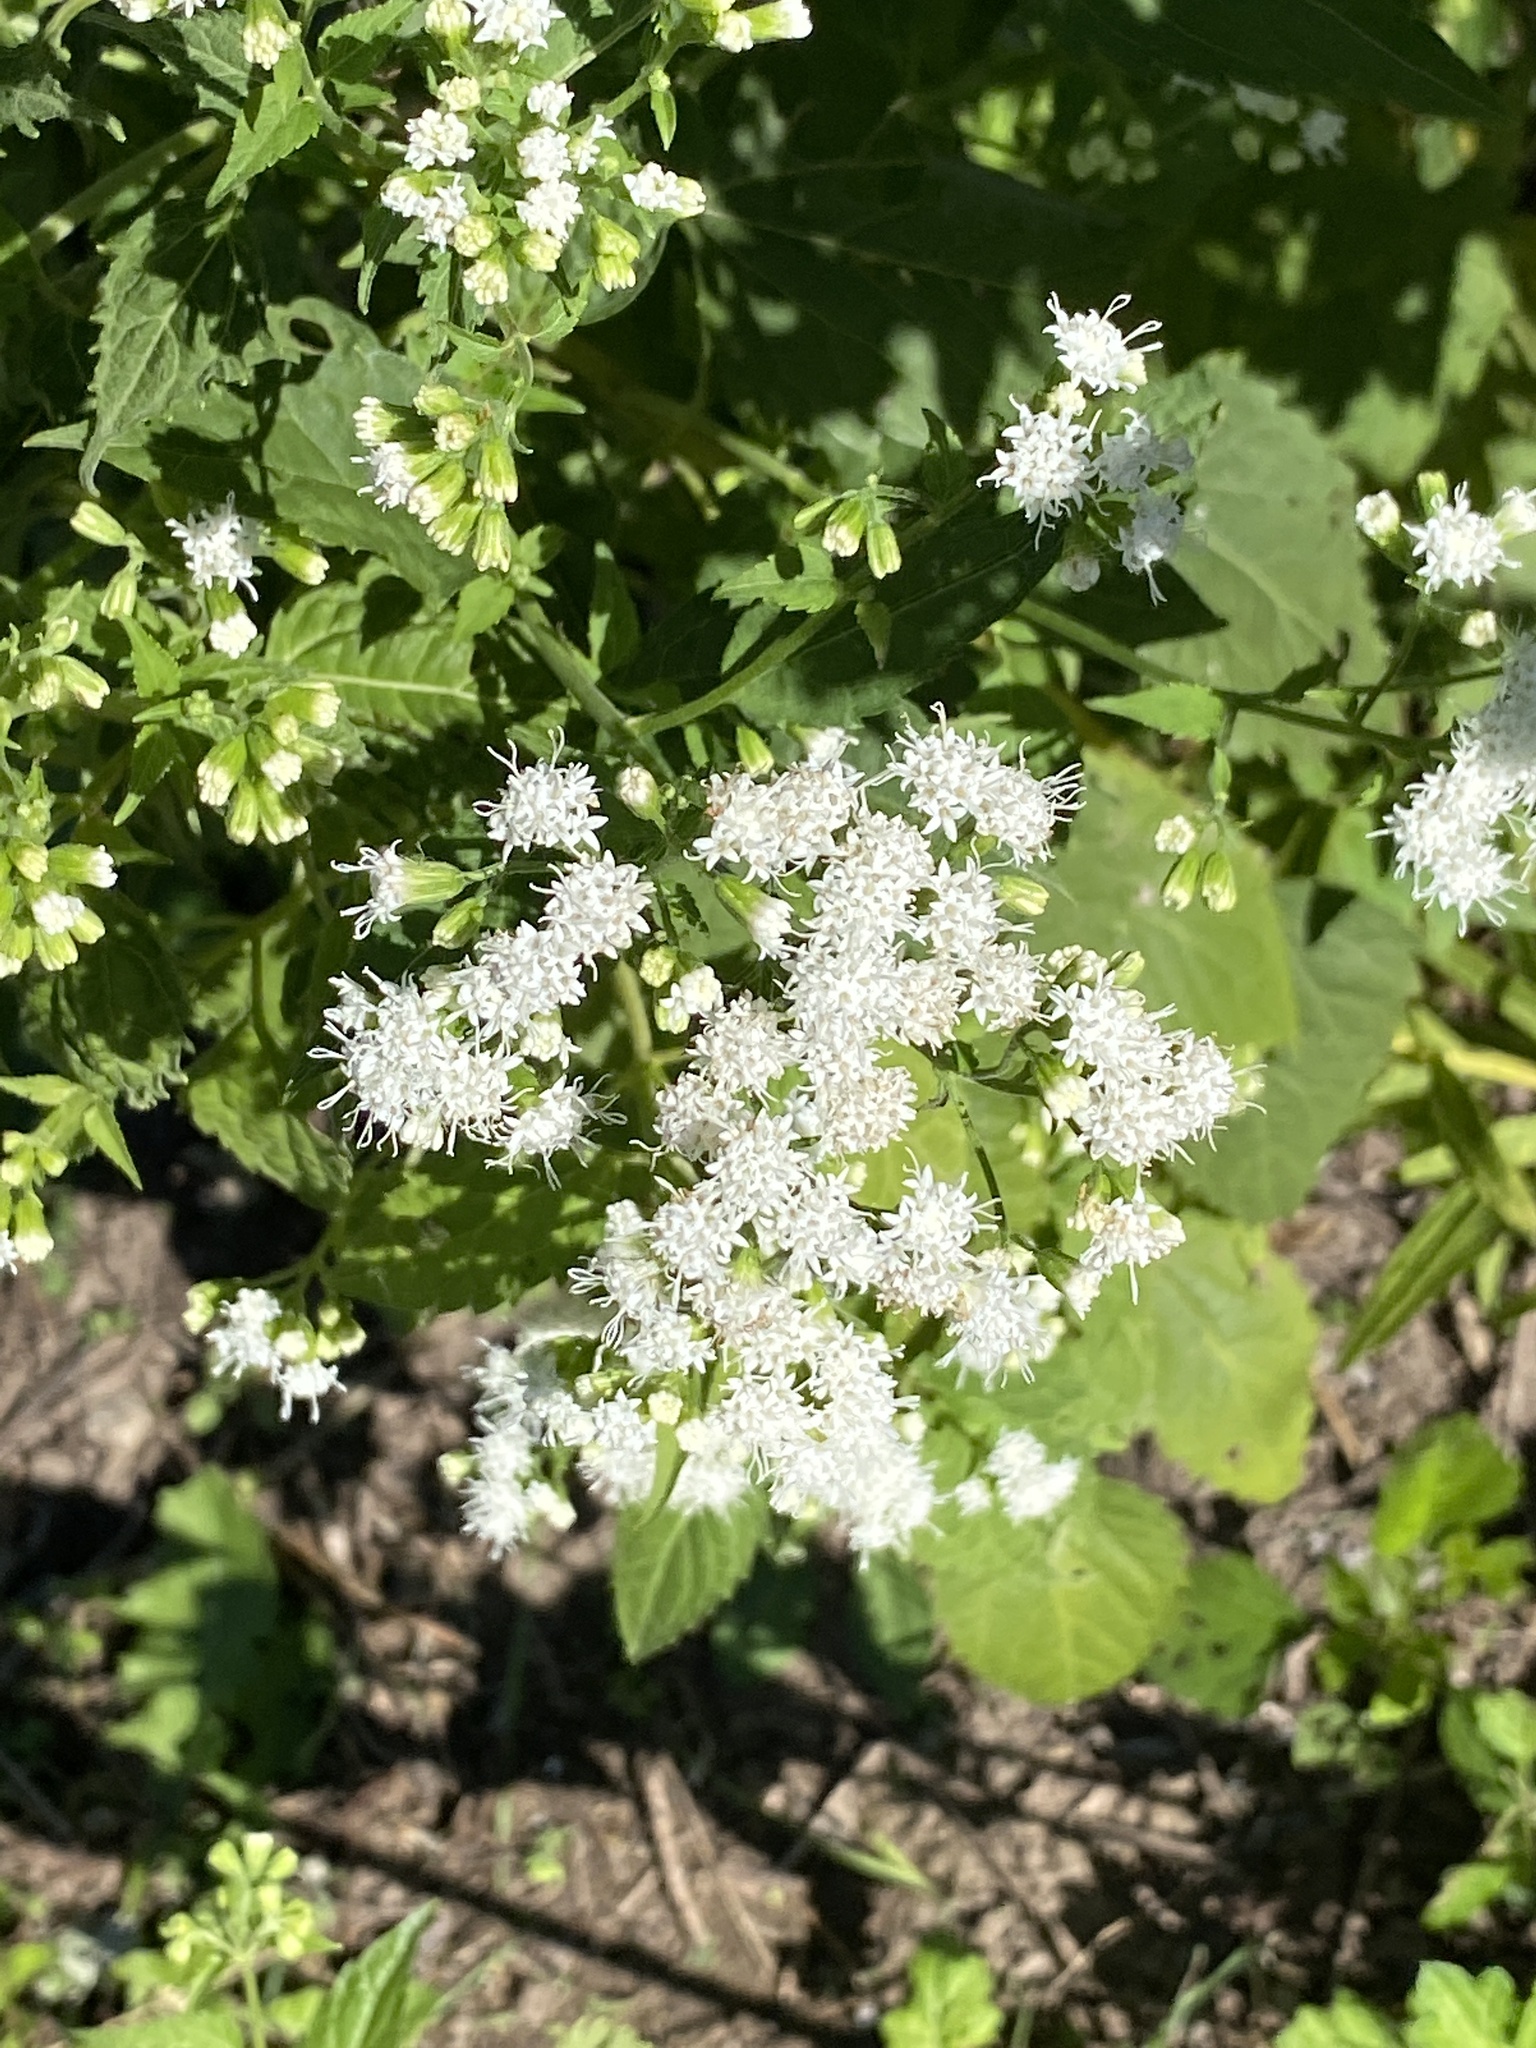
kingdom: Plantae
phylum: Tracheophyta
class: Magnoliopsida
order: Asterales
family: Asteraceae
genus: Ageratina
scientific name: Ageratina altissima
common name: White snakeroot
